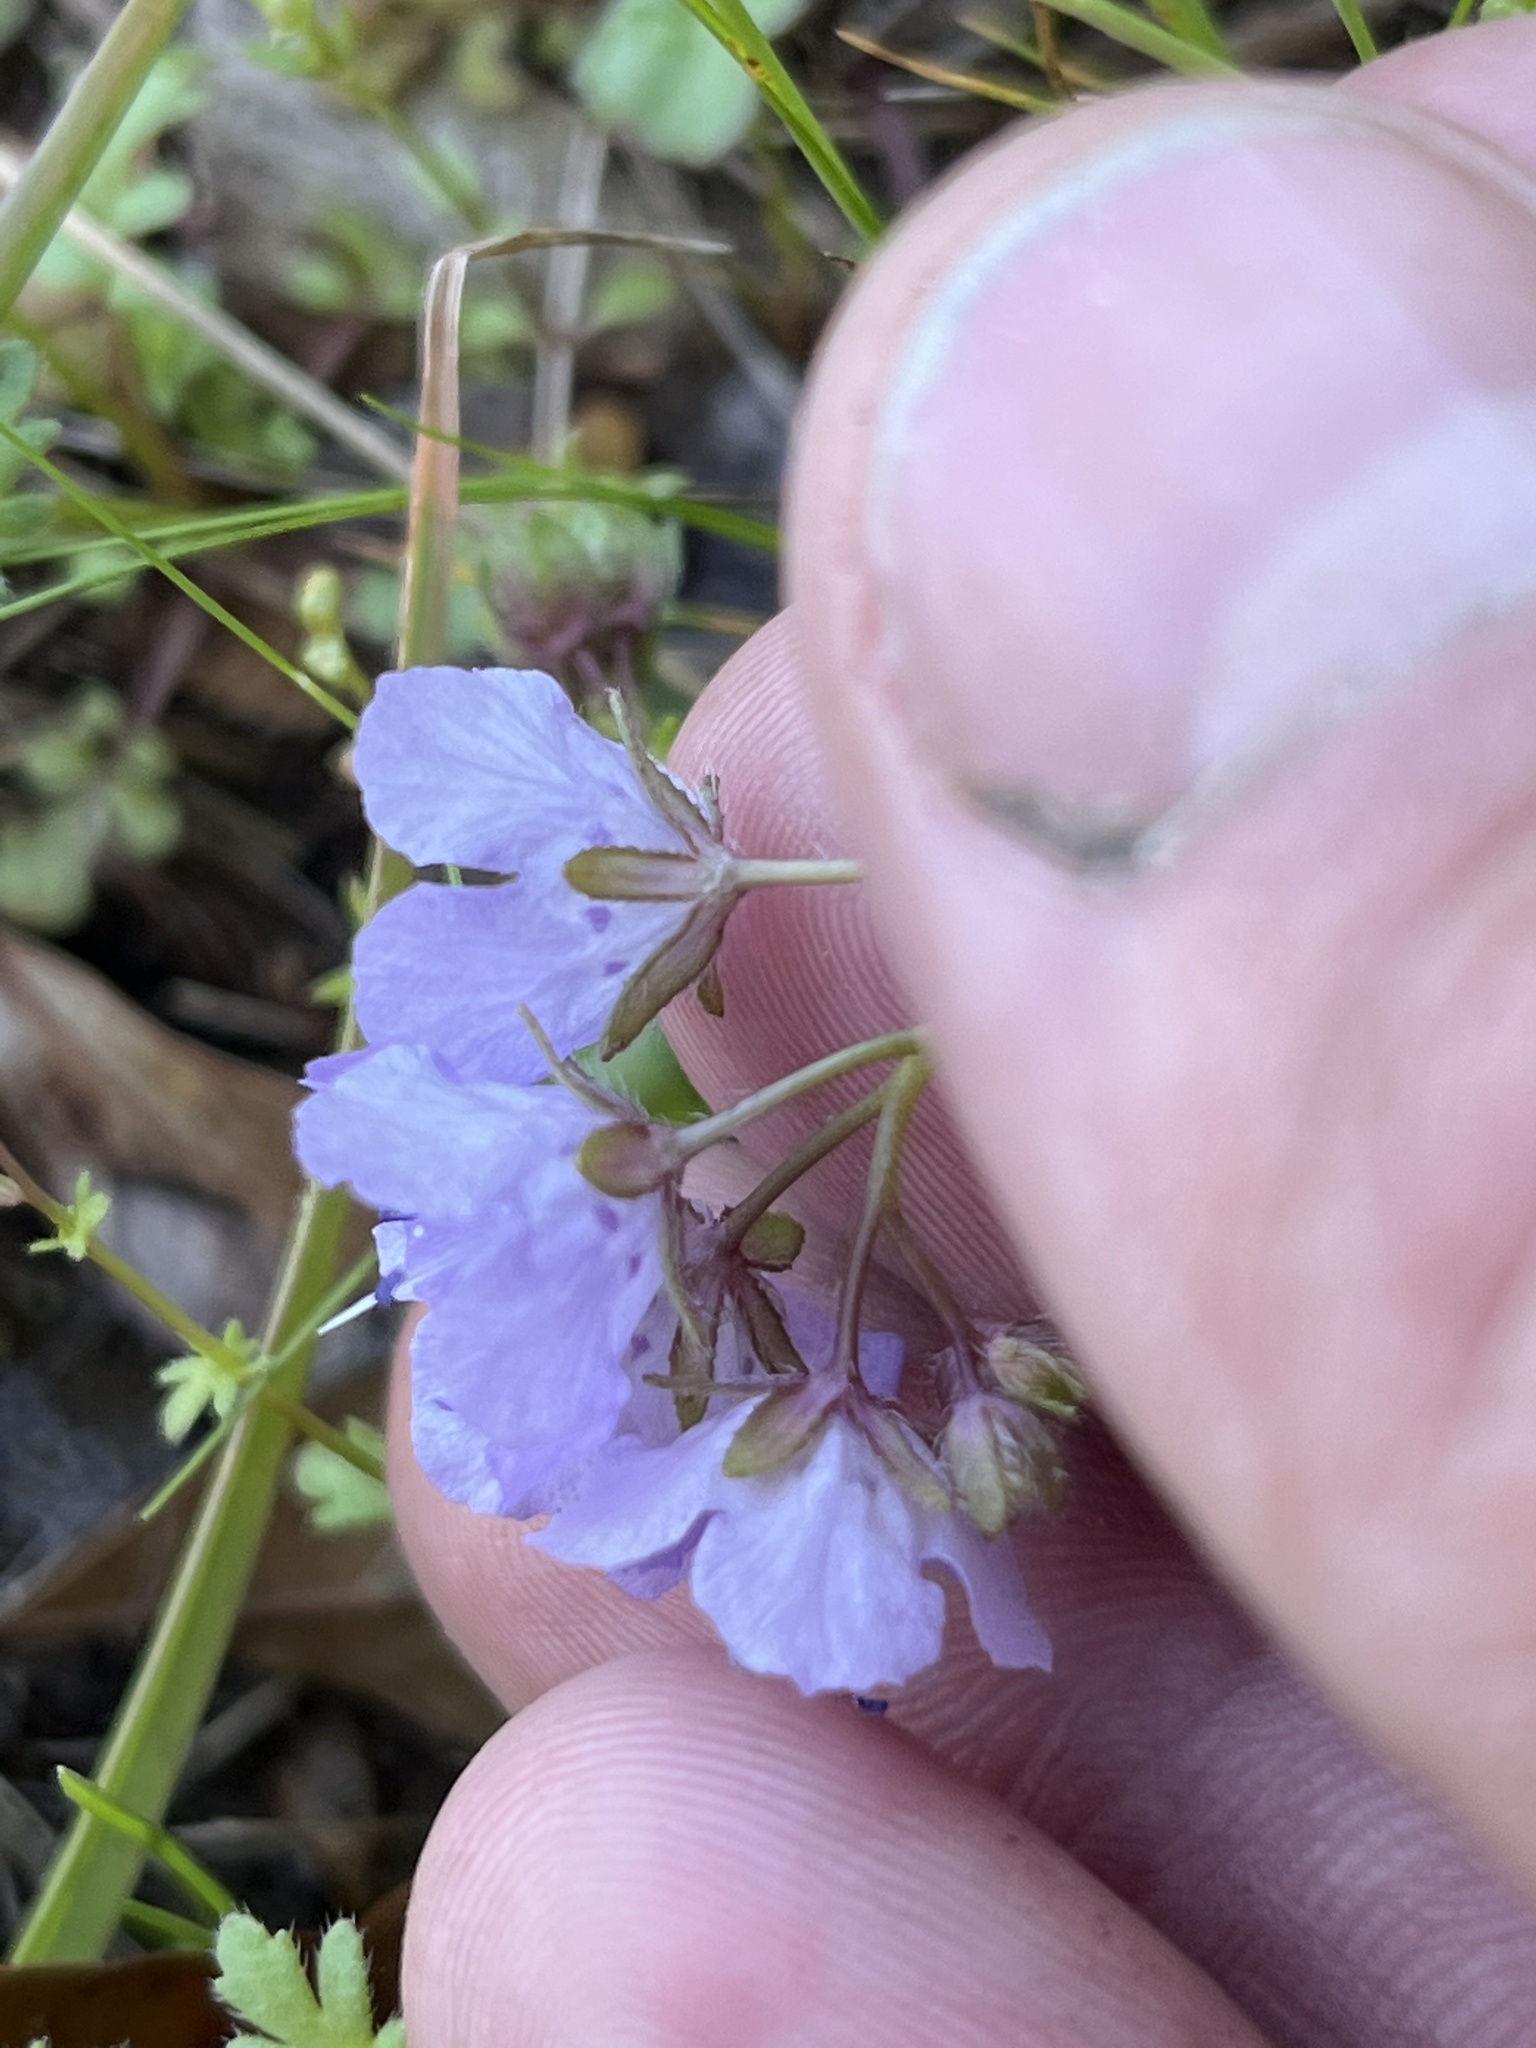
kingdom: Plantae
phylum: Tracheophyta
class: Magnoliopsida
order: Boraginales
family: Hydrophyllaceae
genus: Phacelia
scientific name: Phacelia hirsuta
